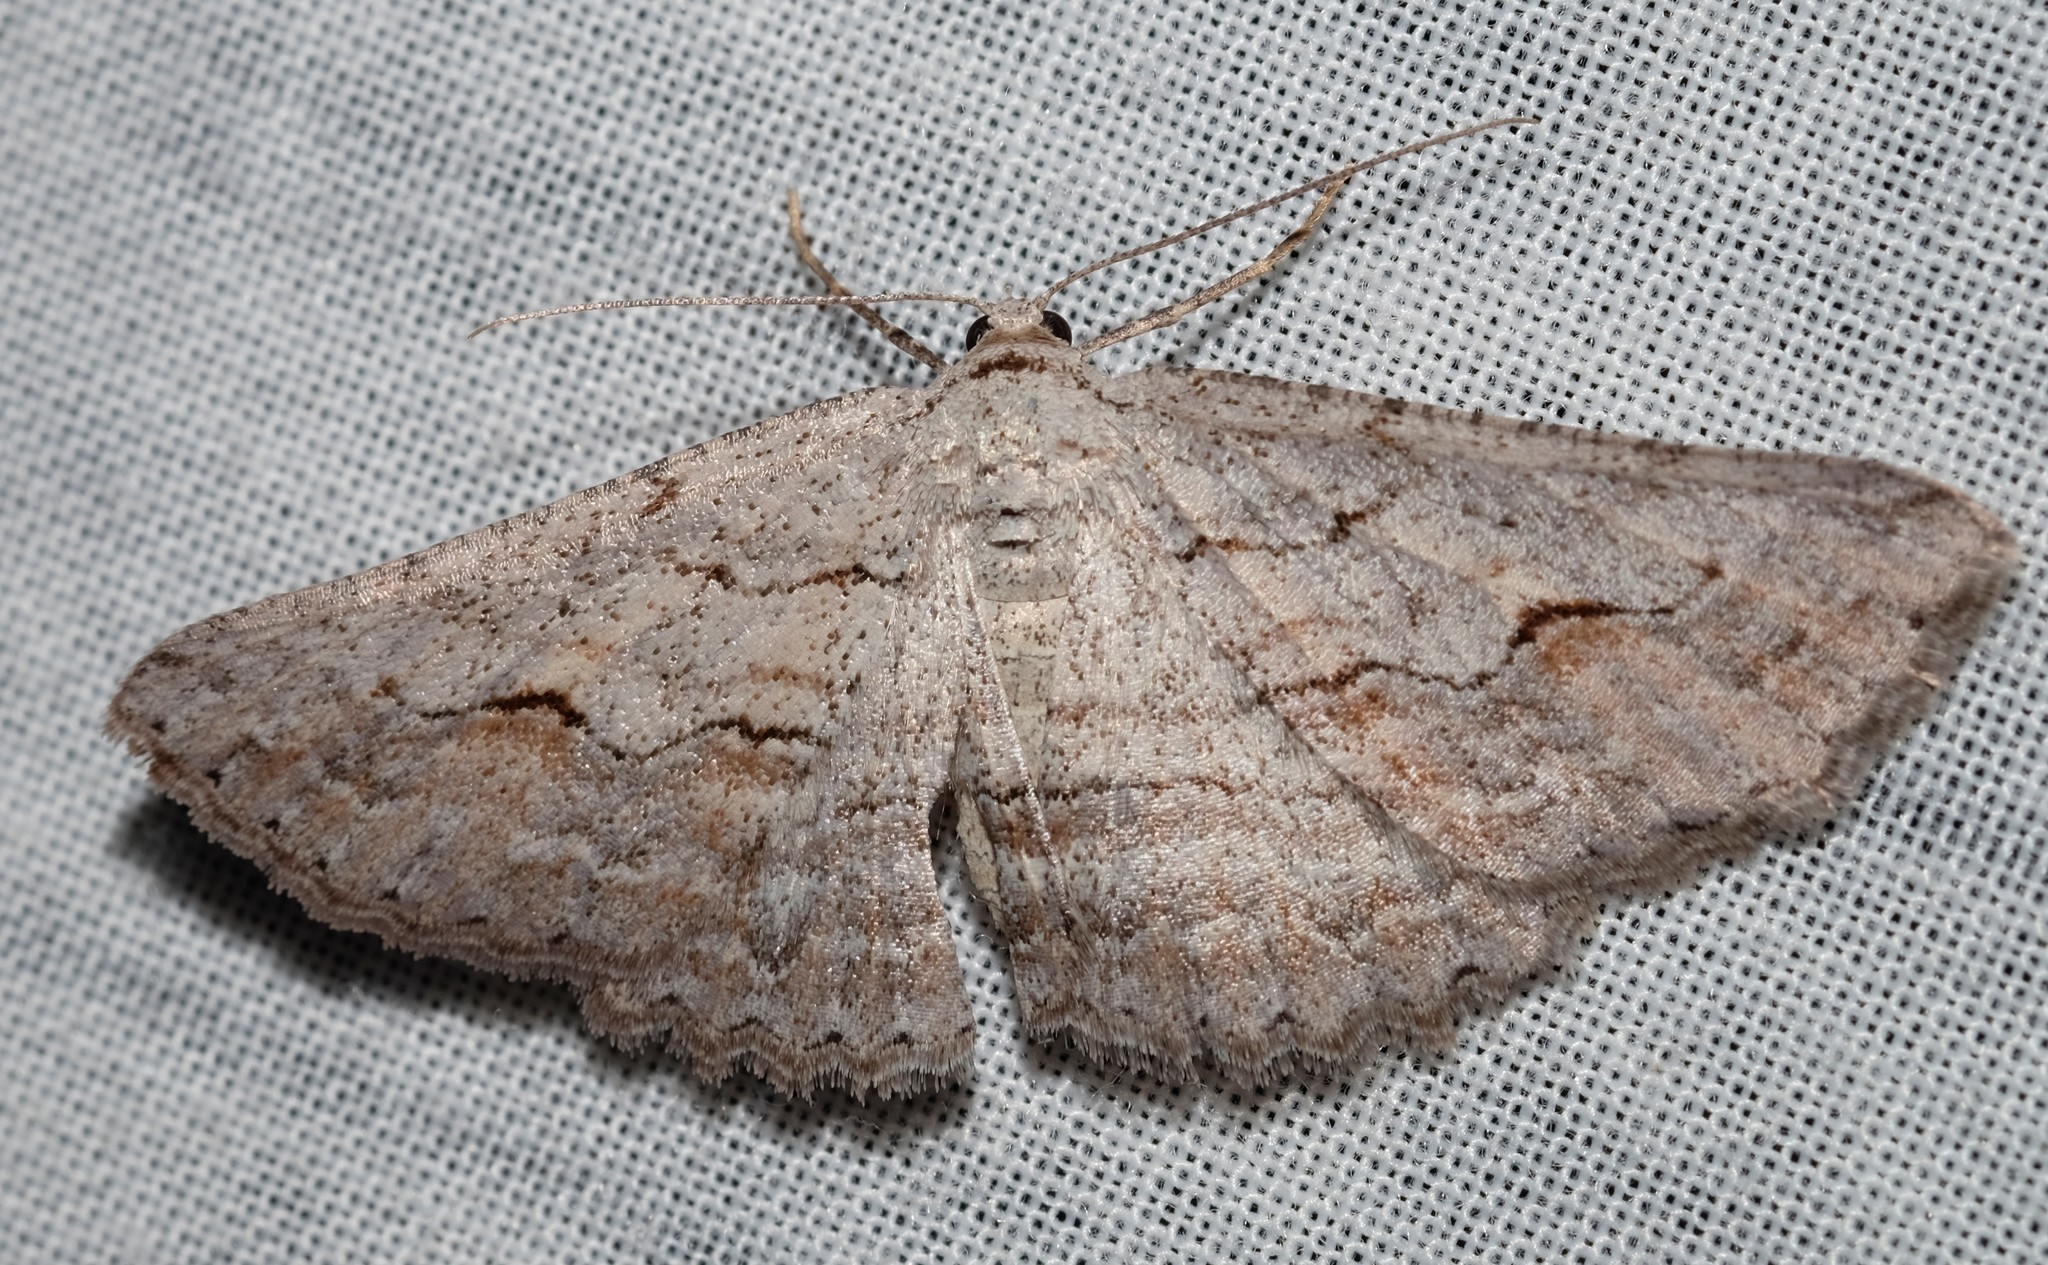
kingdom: Animalia
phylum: Arthropoda
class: Insecta
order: Lepidoptera
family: Geometridae
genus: Syneora
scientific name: Syneora mundifera
